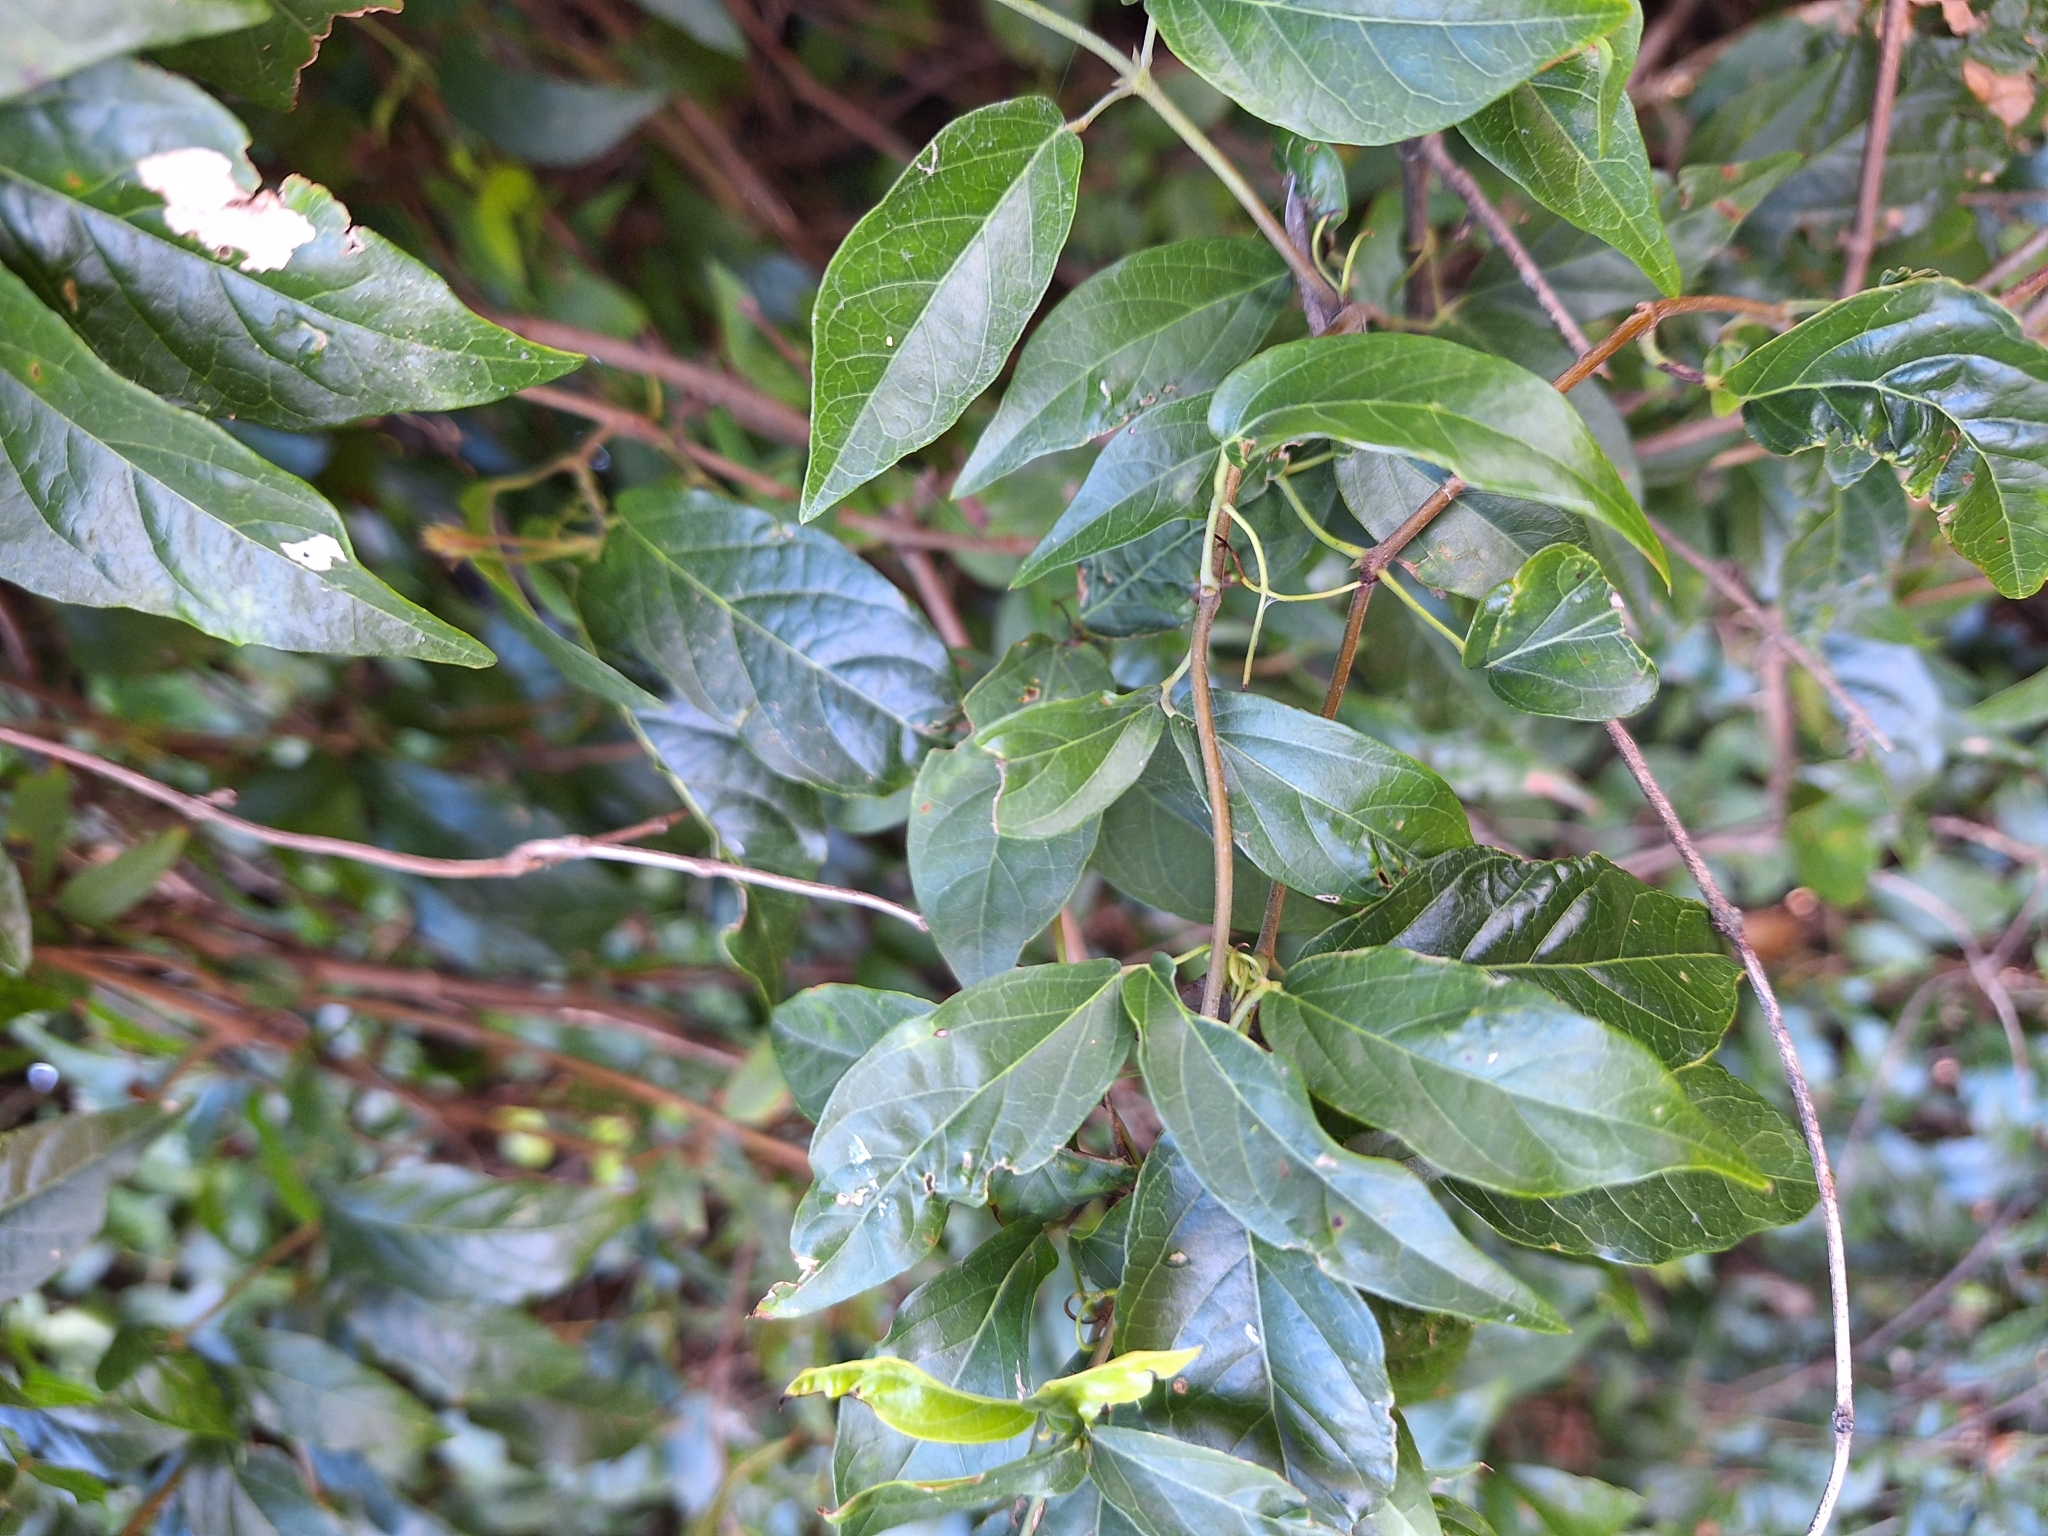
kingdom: Plantae
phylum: Tracheophyta
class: Magnoliopsida
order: Lamiales
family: Bignoniaceae
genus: Dolichandra
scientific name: Dolichandra unguis-cati
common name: Catclaw vine
